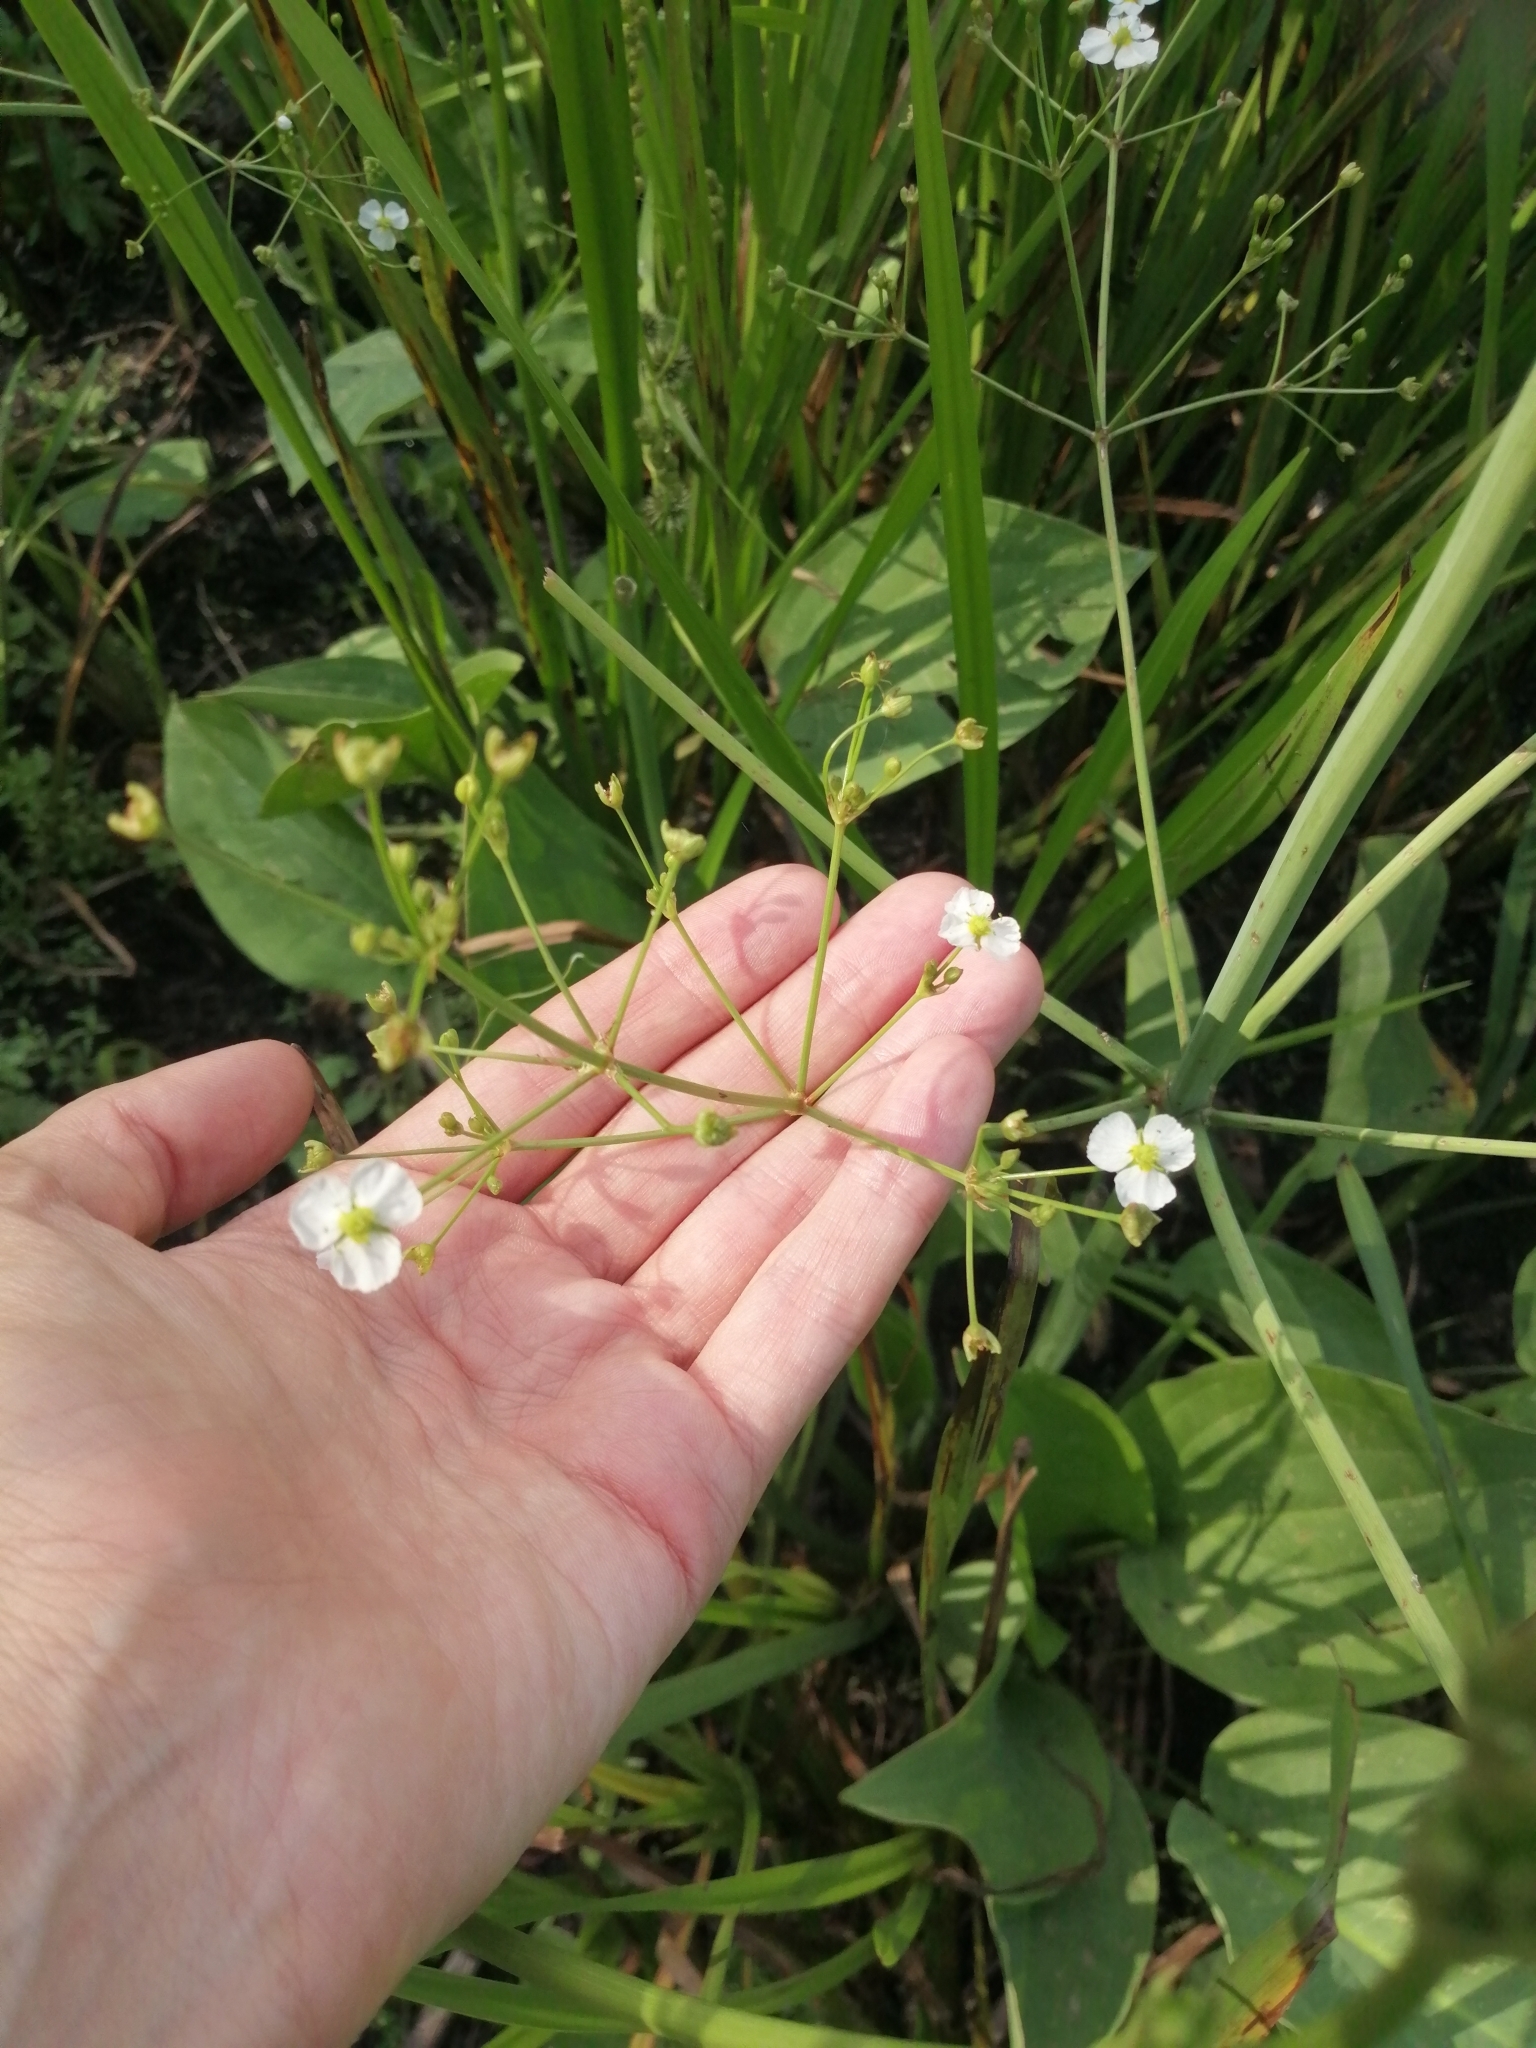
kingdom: Plantae
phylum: Tracheophyta
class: Liliopsida
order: Alismatales
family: Alismataceae
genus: Alisma
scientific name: Alisma plantago-aquatica
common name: Water-plantain
